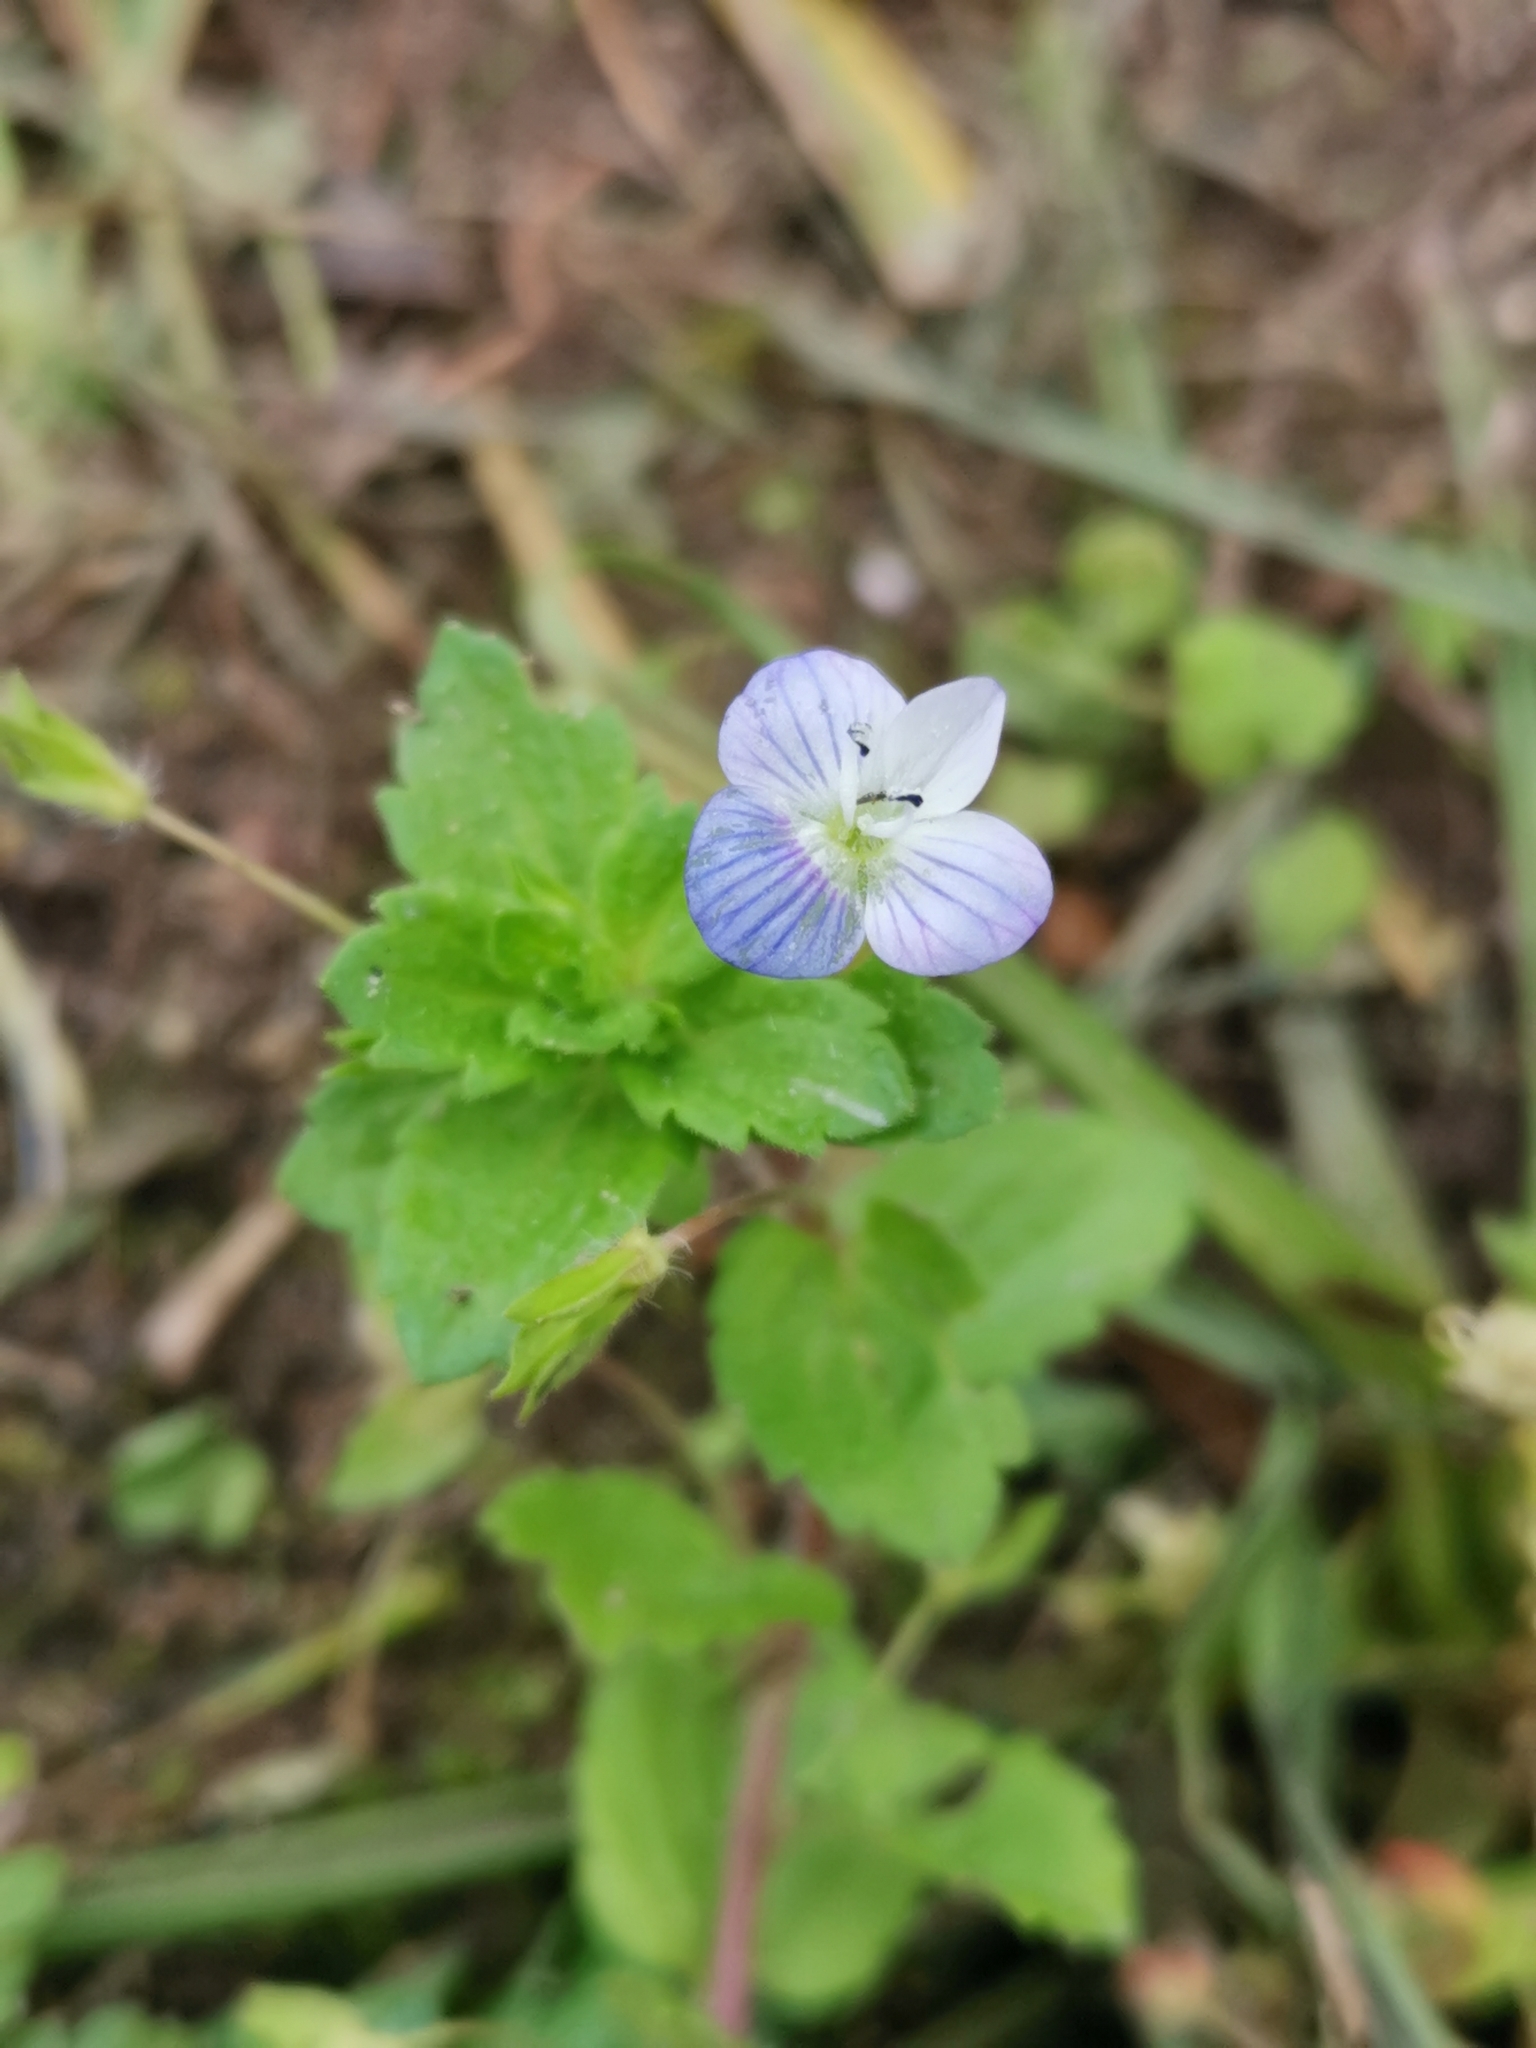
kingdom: Plantae
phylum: Tracheophyta
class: Magnoliopsida
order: Lamiales
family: Plantaginaceae
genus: Veronica
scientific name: Veronica persica
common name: Common field-speedwell
